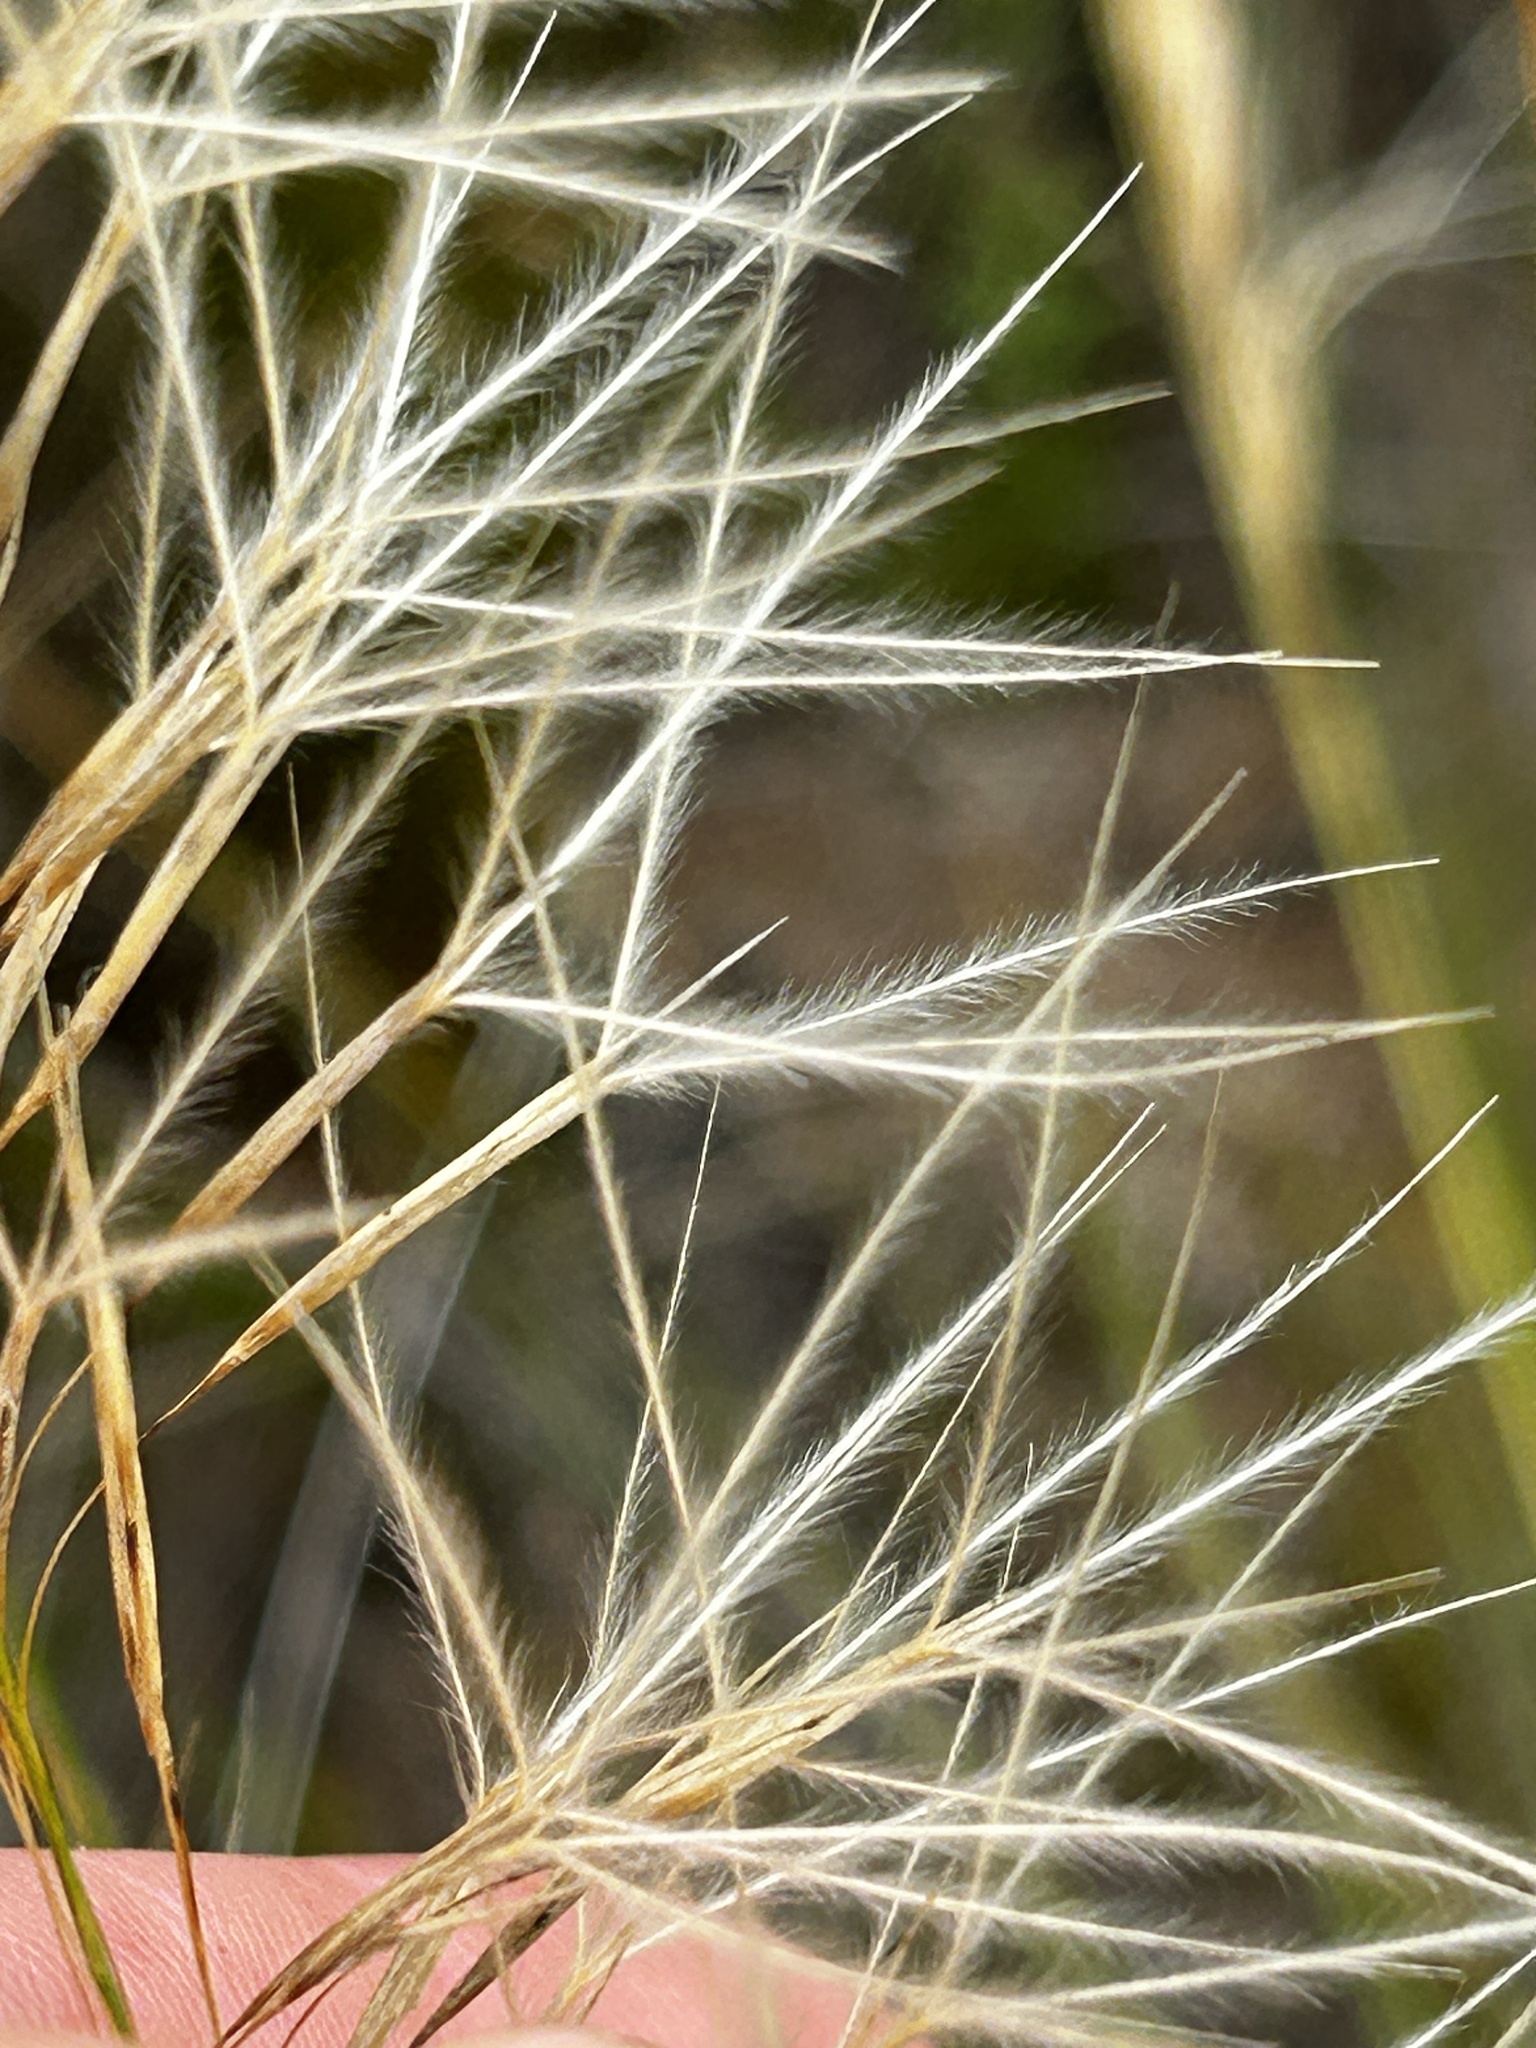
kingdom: Plantae
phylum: Tracheophyta
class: Liliopsida
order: Poales
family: Poaceae
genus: Stipagrostis
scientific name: Stipagrostis zeyheri
